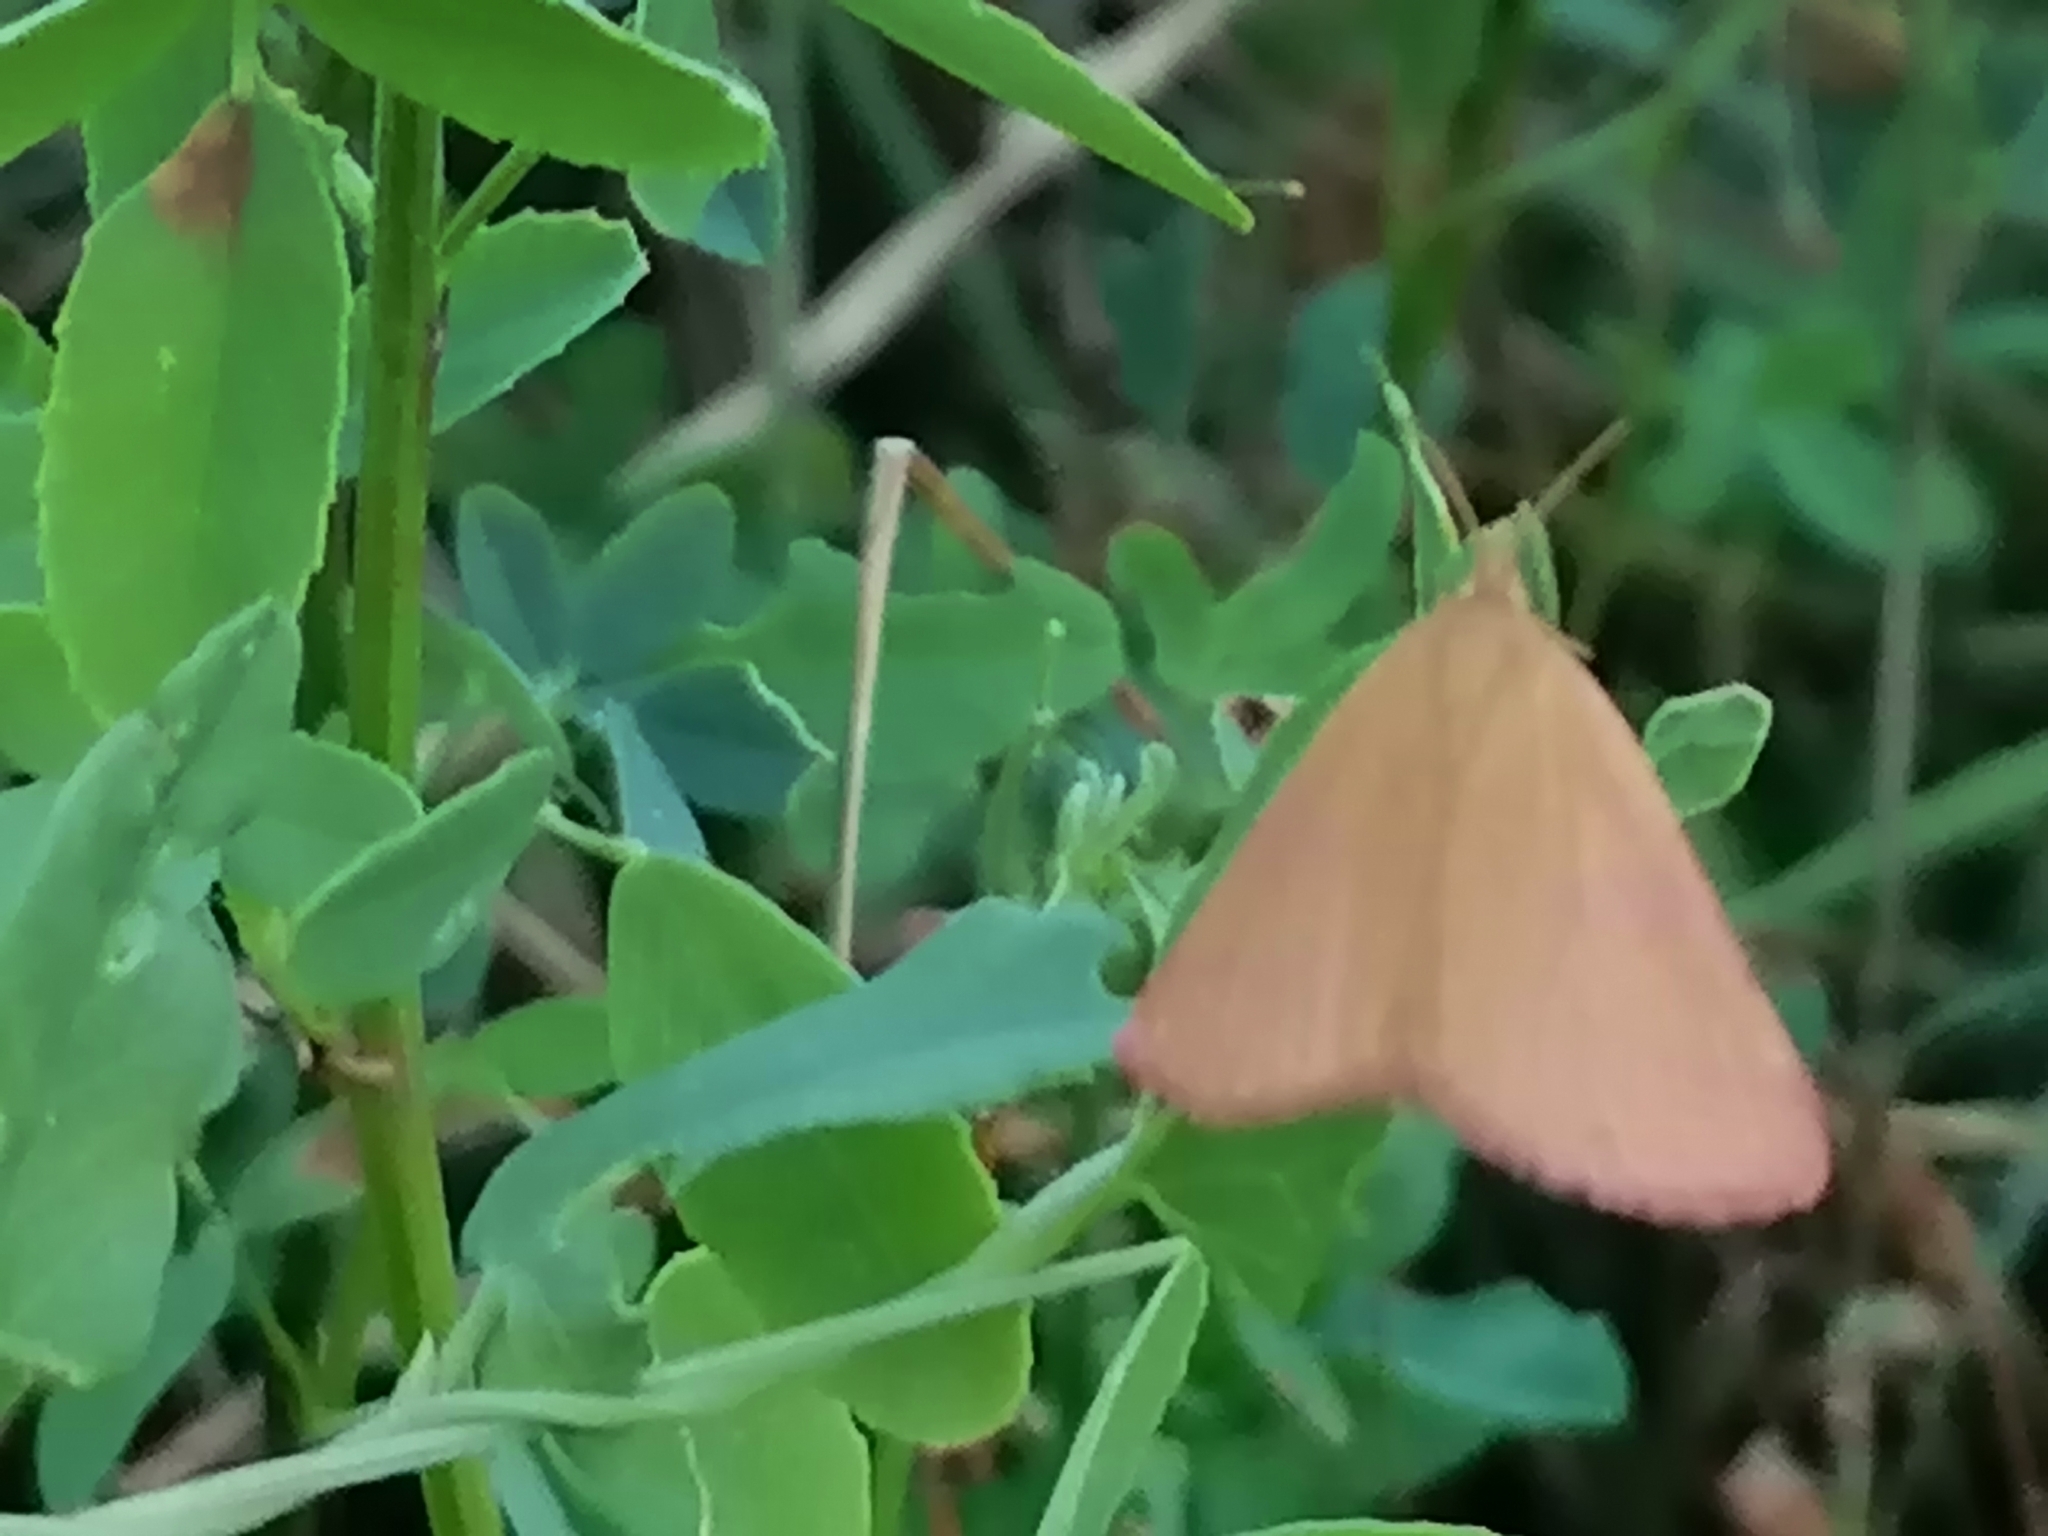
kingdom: Animalia
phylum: Arthropoda
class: Insecta
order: Lepidoptera
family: Geometridae
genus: Lythria
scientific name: Lythria purpuraria
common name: Purple-barred yellow
